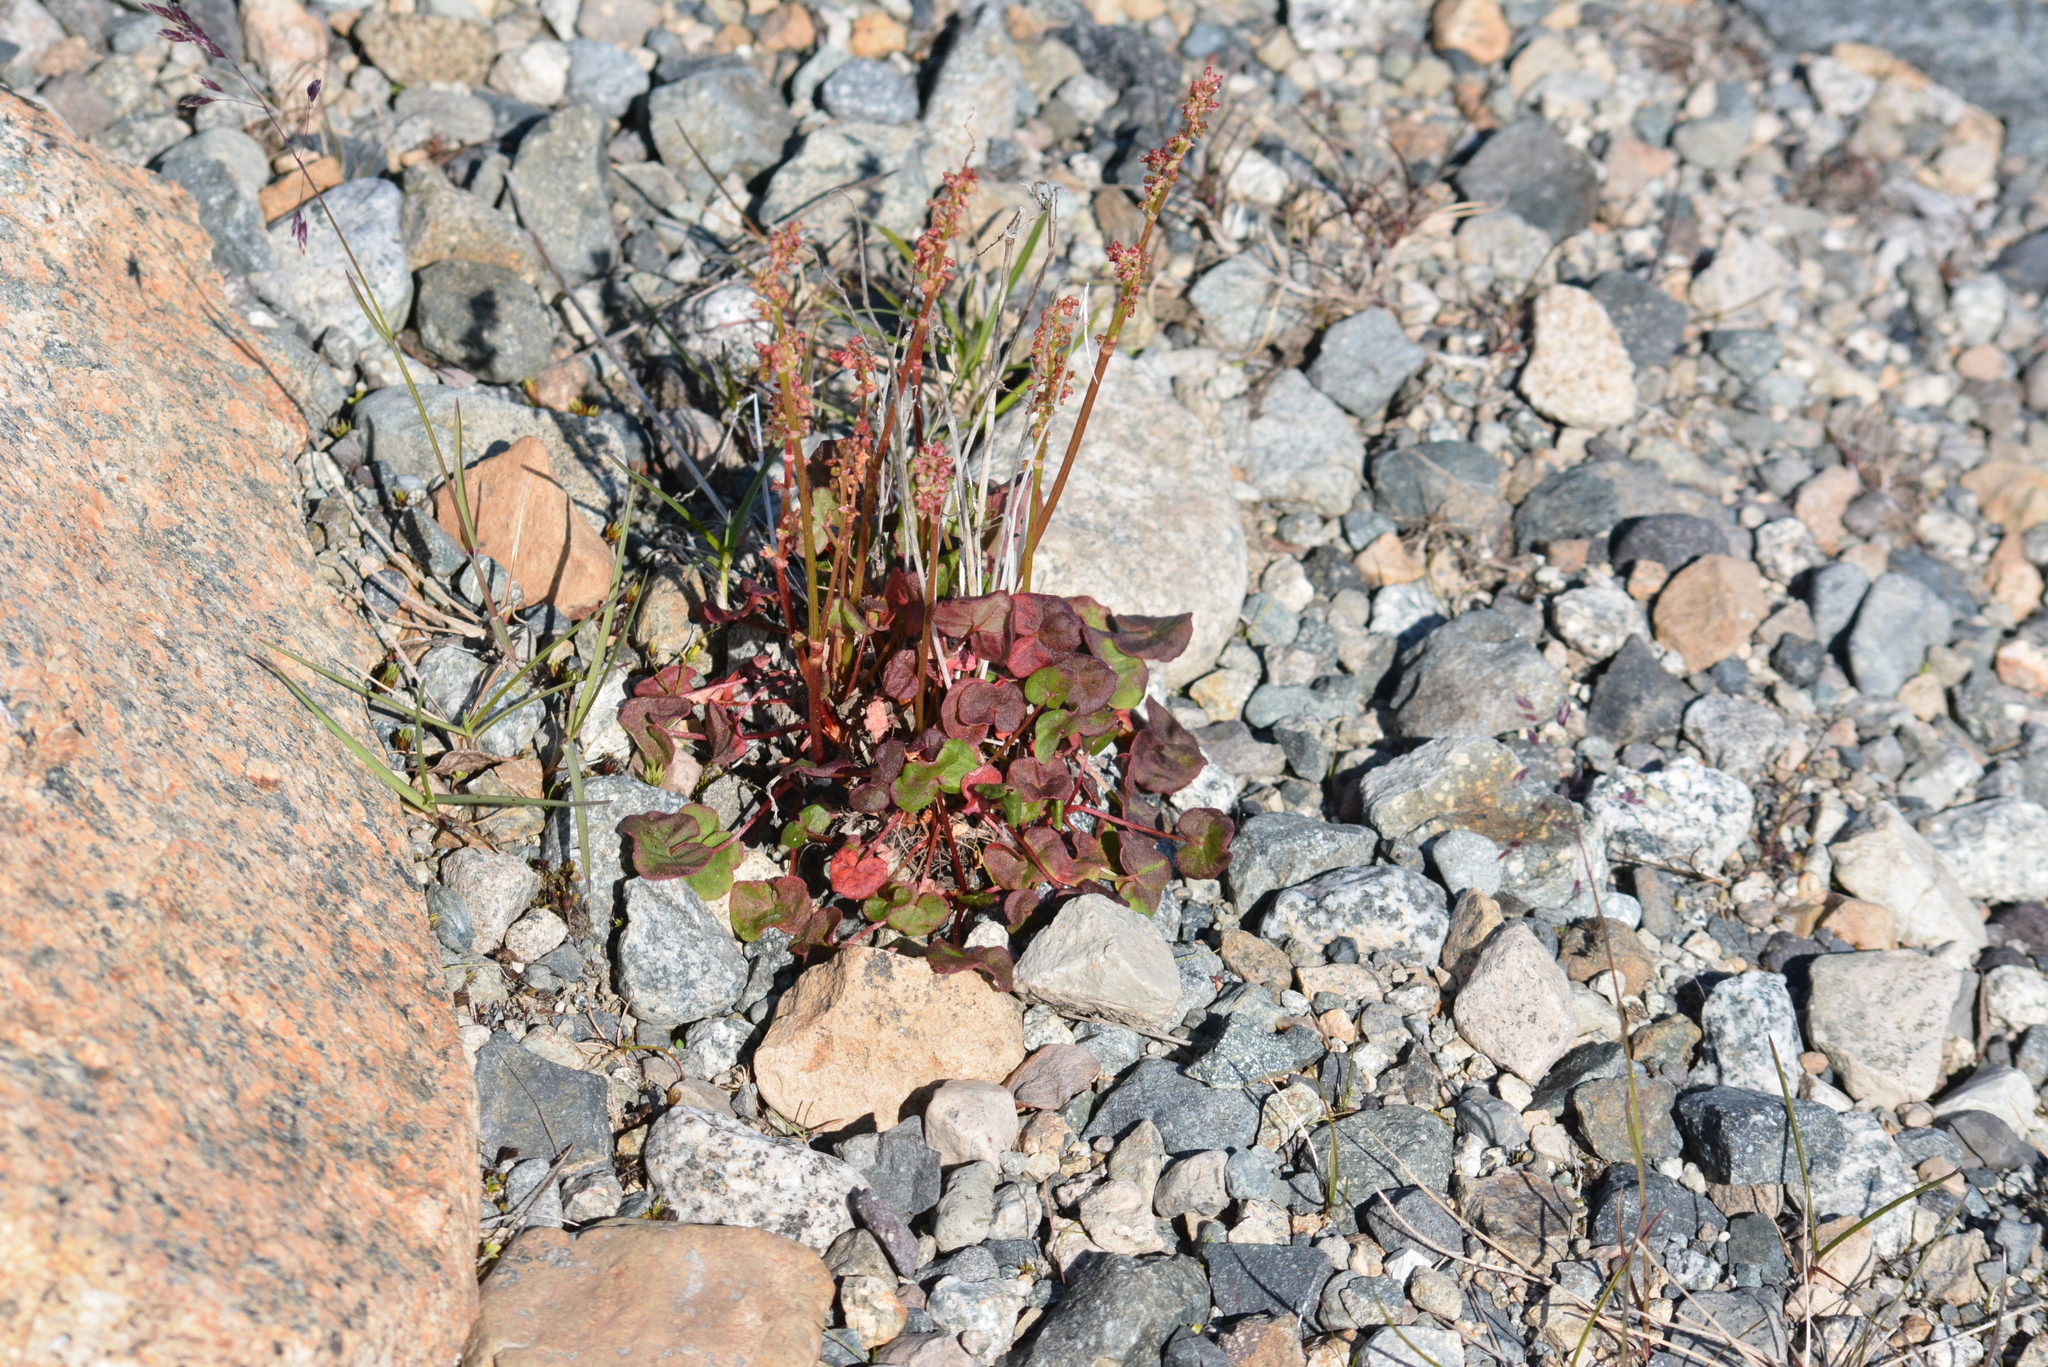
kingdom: Plantae
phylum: Tracheophyta
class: Magnoliopsida
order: Caryophyllales
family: Polygonaceae
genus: Oxyria
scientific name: Oxyria digyna
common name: Alpine mountain-sorrel
